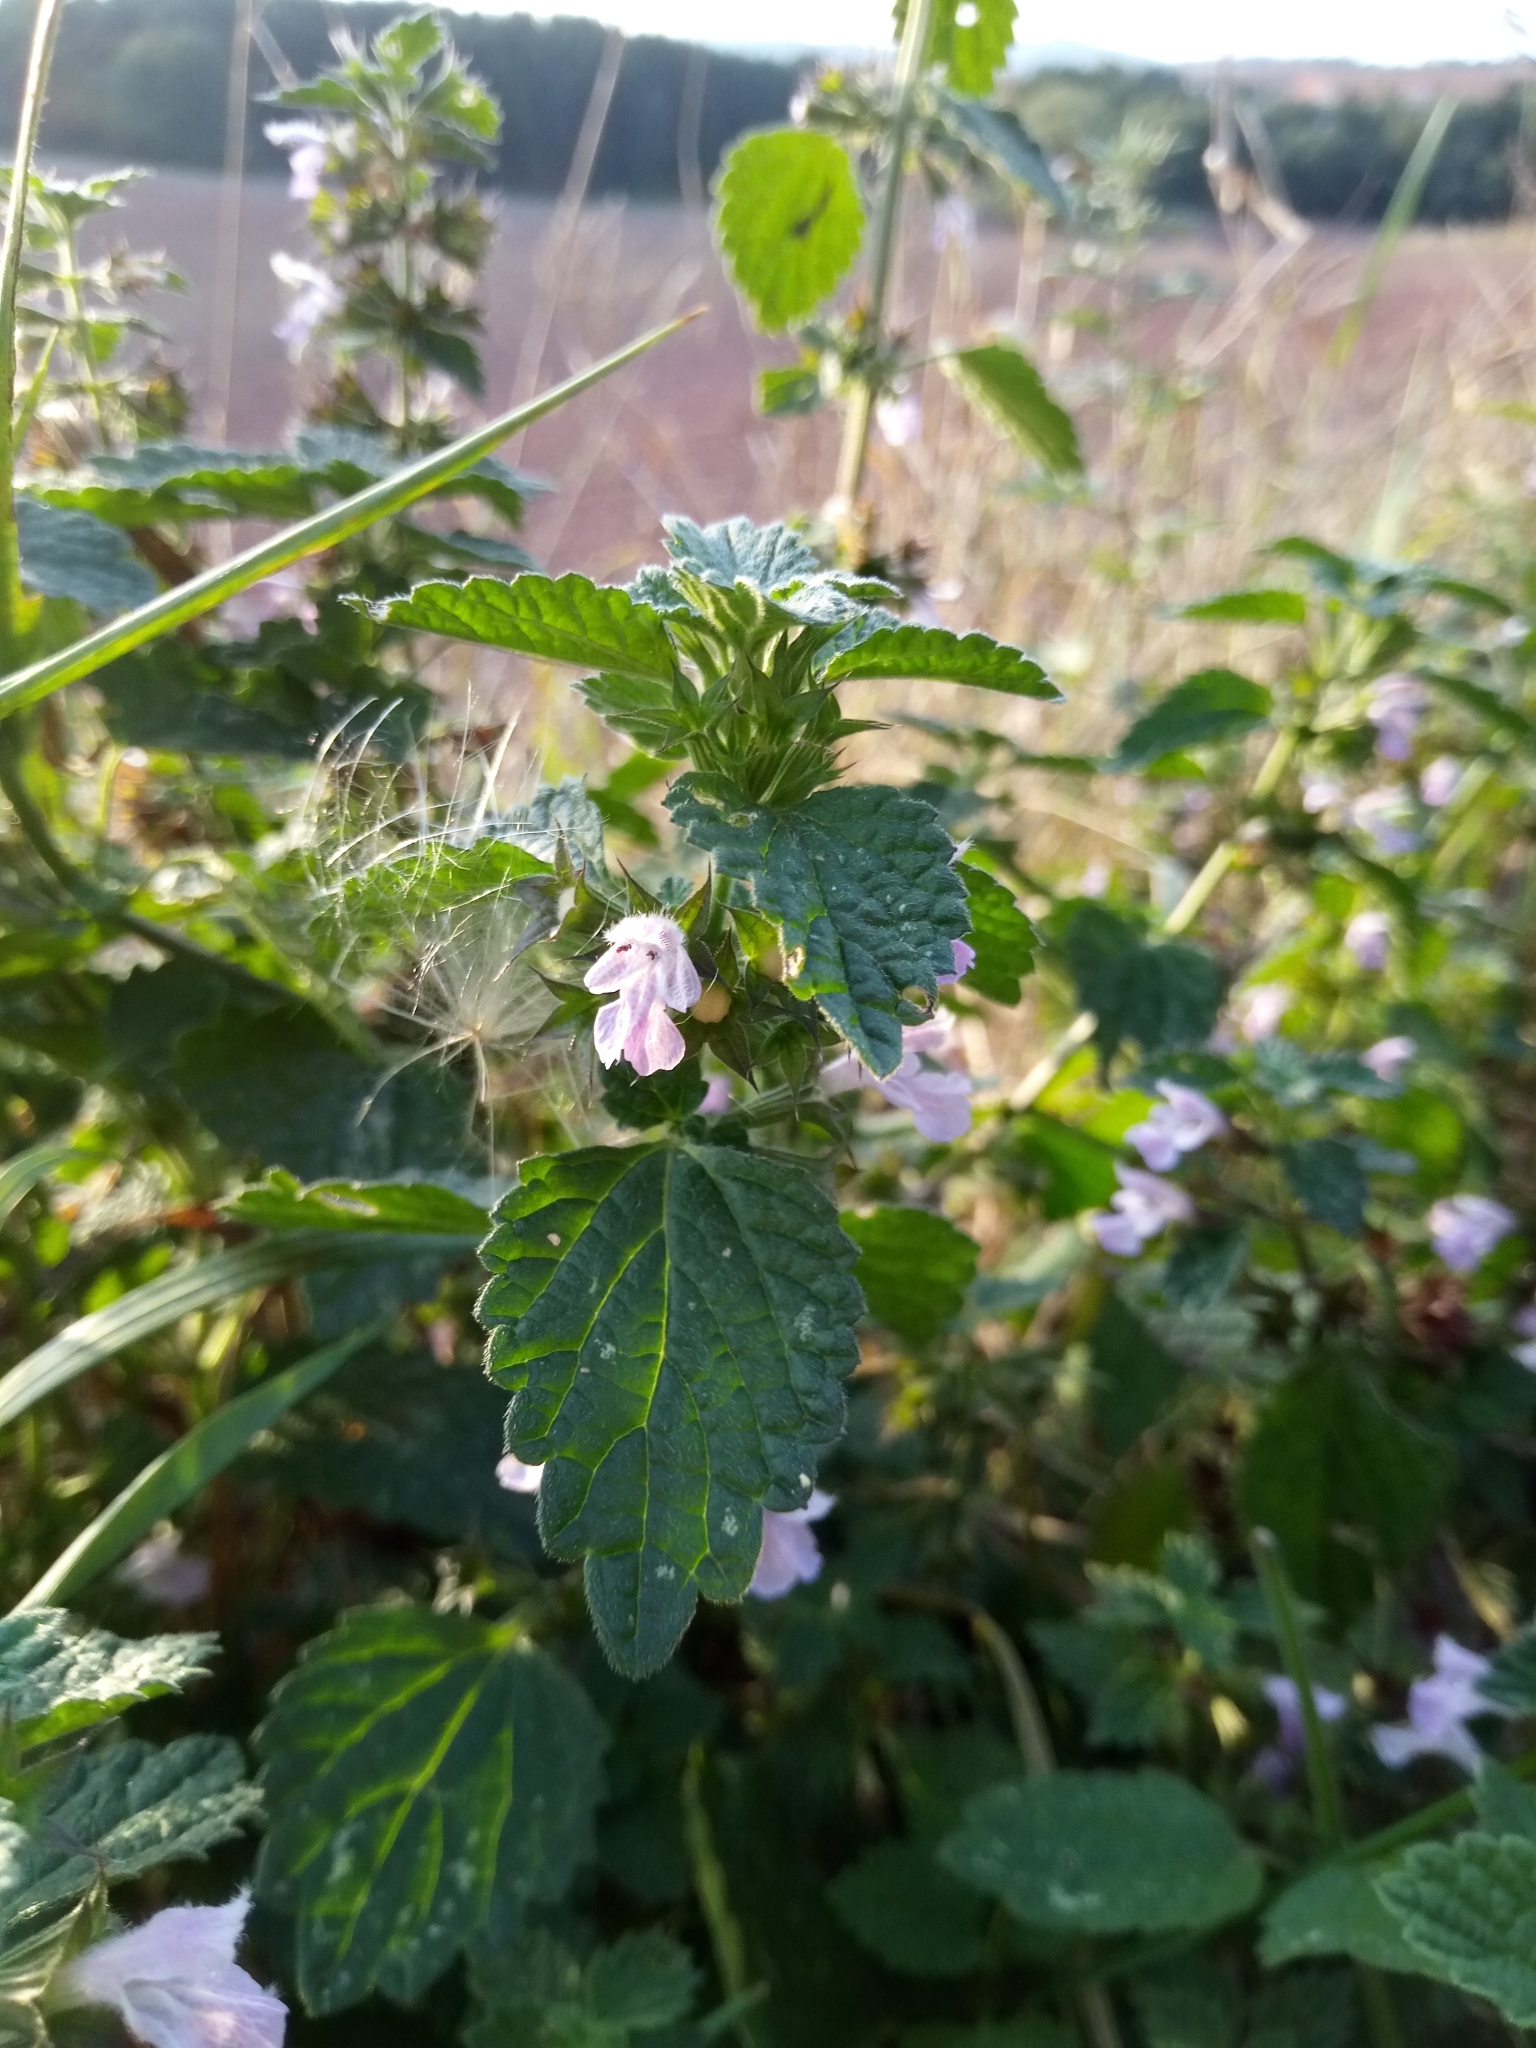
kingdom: Plantae
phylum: Tracheophyta
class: Magnoliopsida
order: Lamiales
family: Lamiaceae
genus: Ballota
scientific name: Ballota nigra
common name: Black horehound
